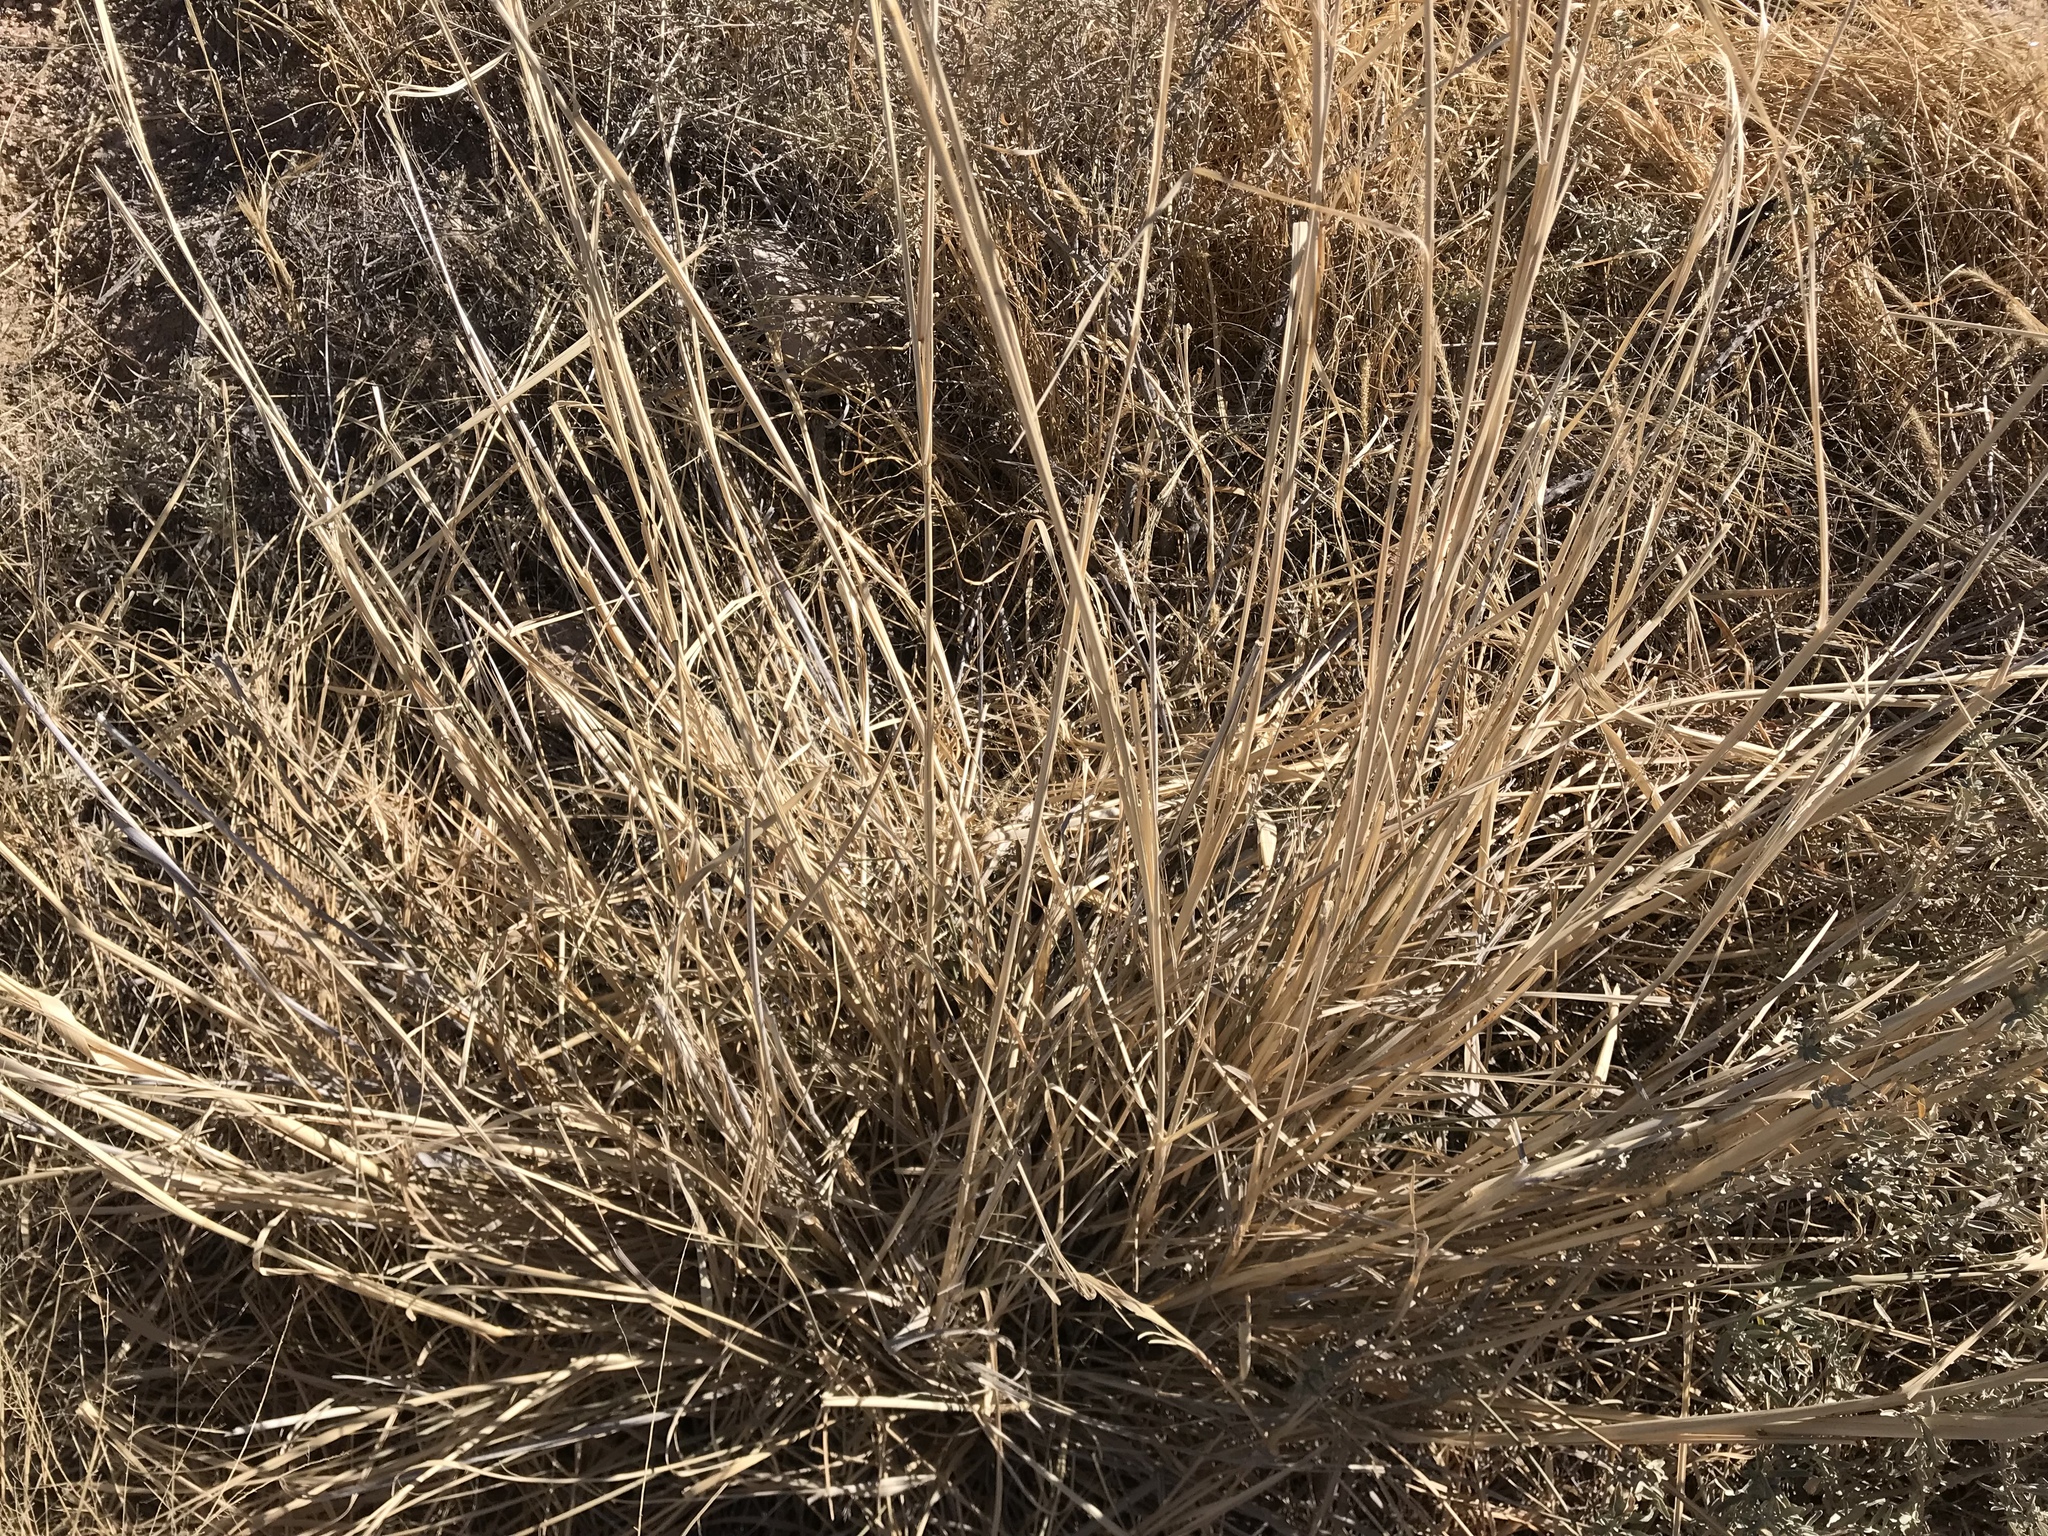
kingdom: Plantae
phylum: Tracheophyta
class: Liliopsida
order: Poales
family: Poaceae
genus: Sporobolus
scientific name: Sporobolus wrightii
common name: Big alkali sacaton
